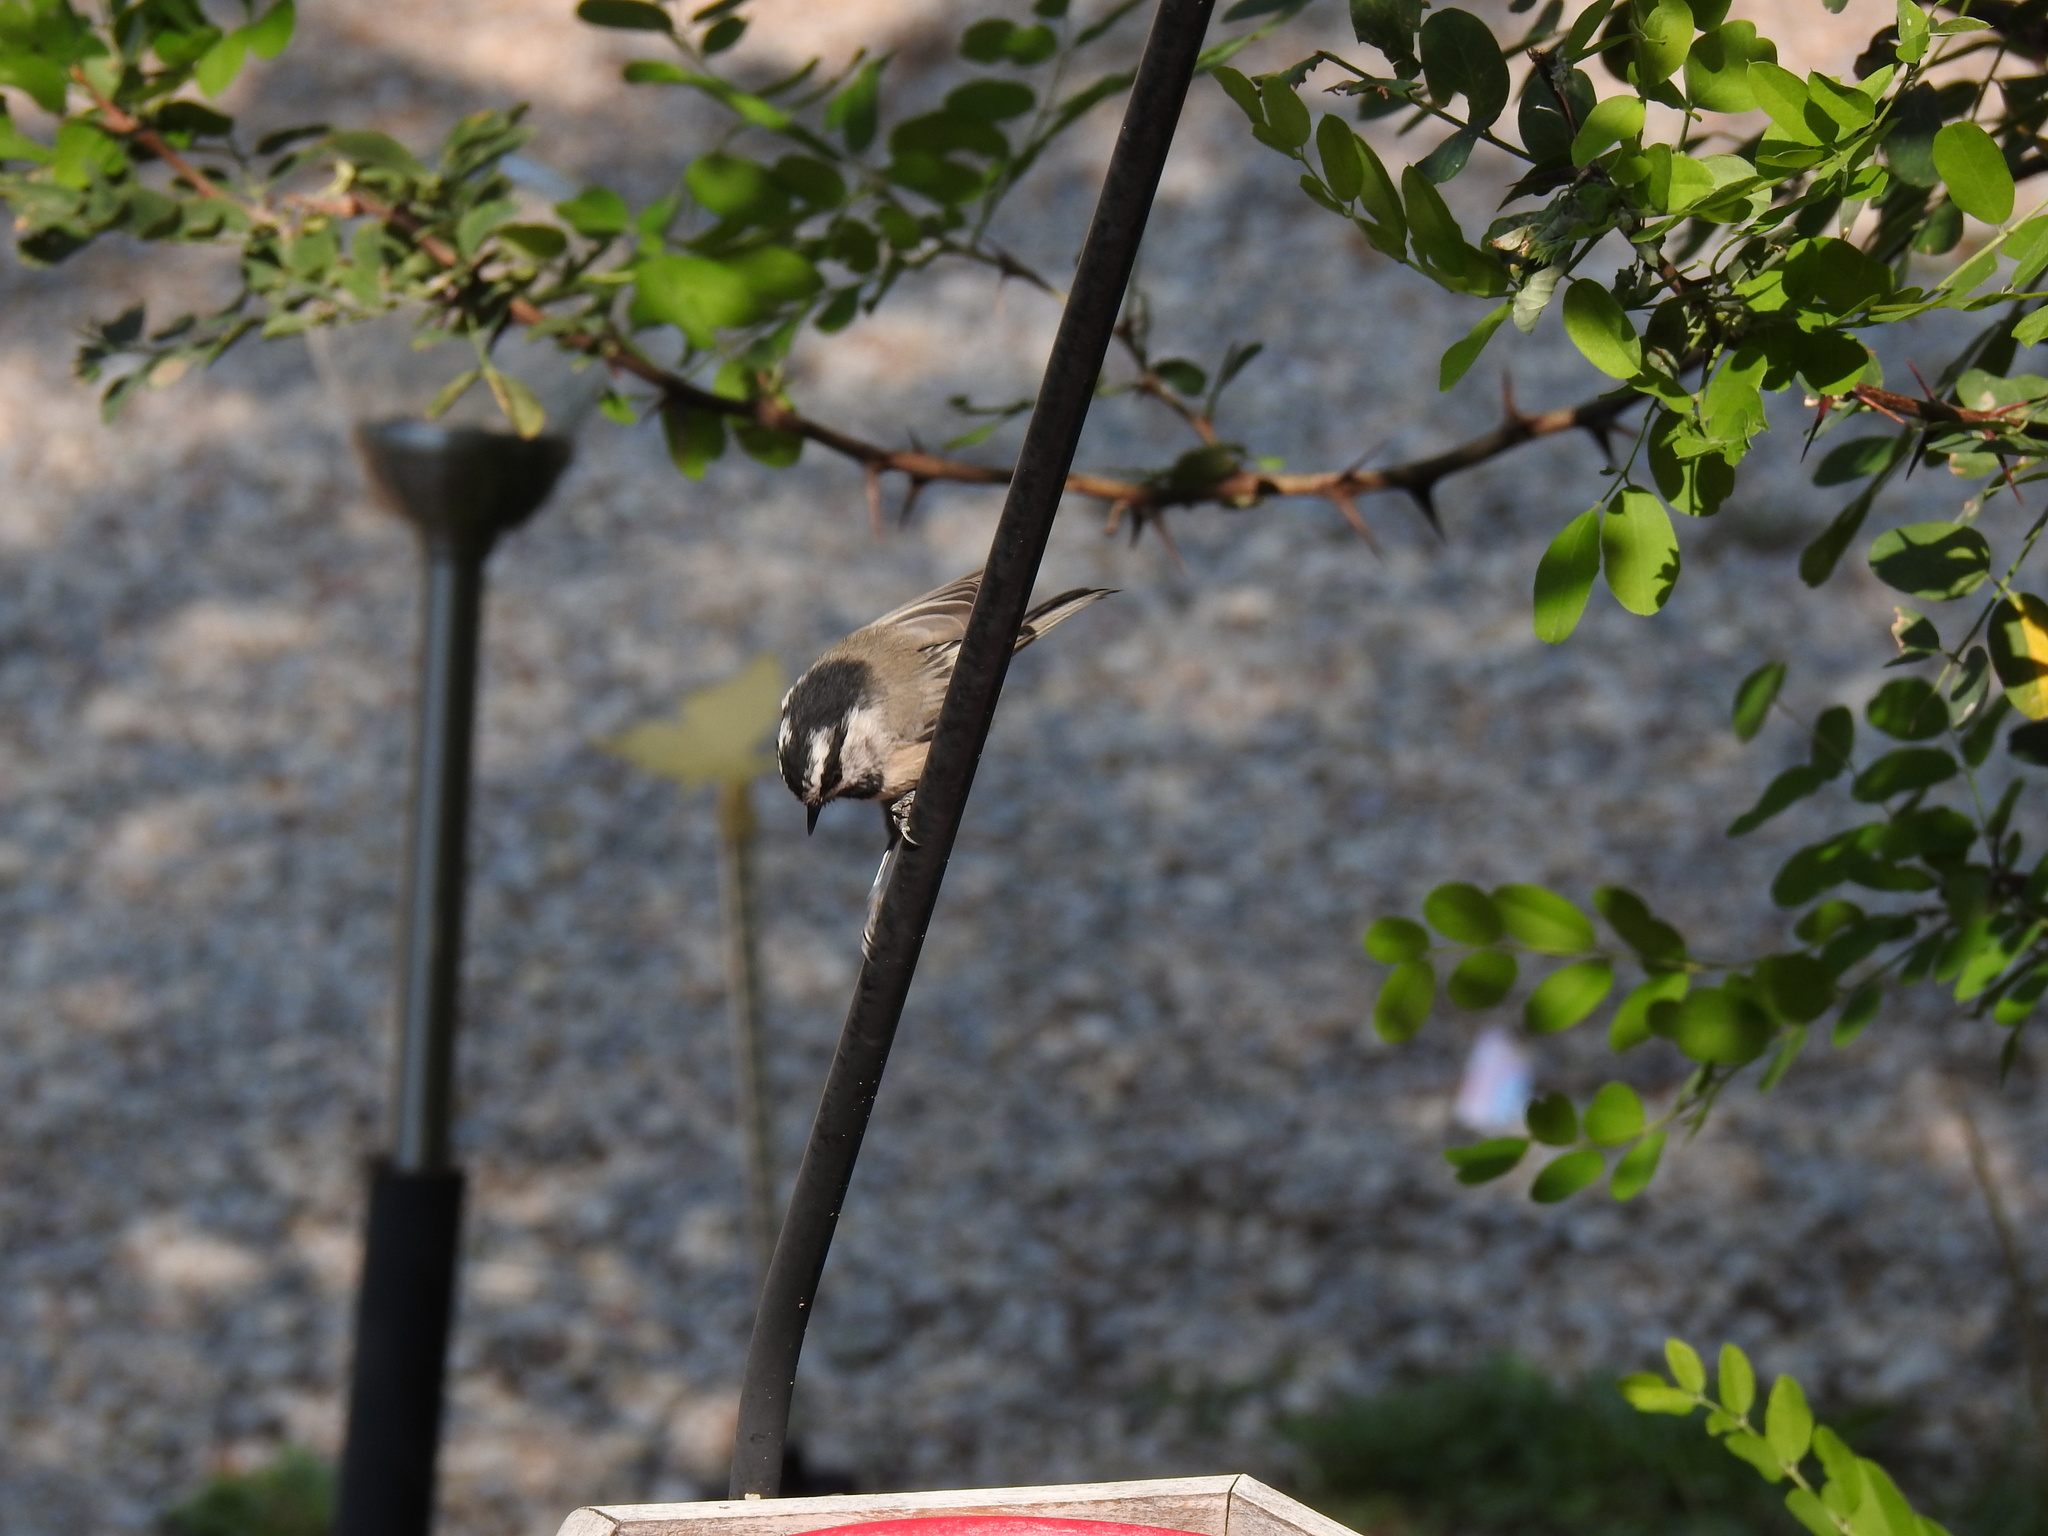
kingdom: Animalia
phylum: Chordata
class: Aves
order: Passeriformes
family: Paridae
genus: Poecile
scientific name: Poecile gambeli
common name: Mountain chickadee
